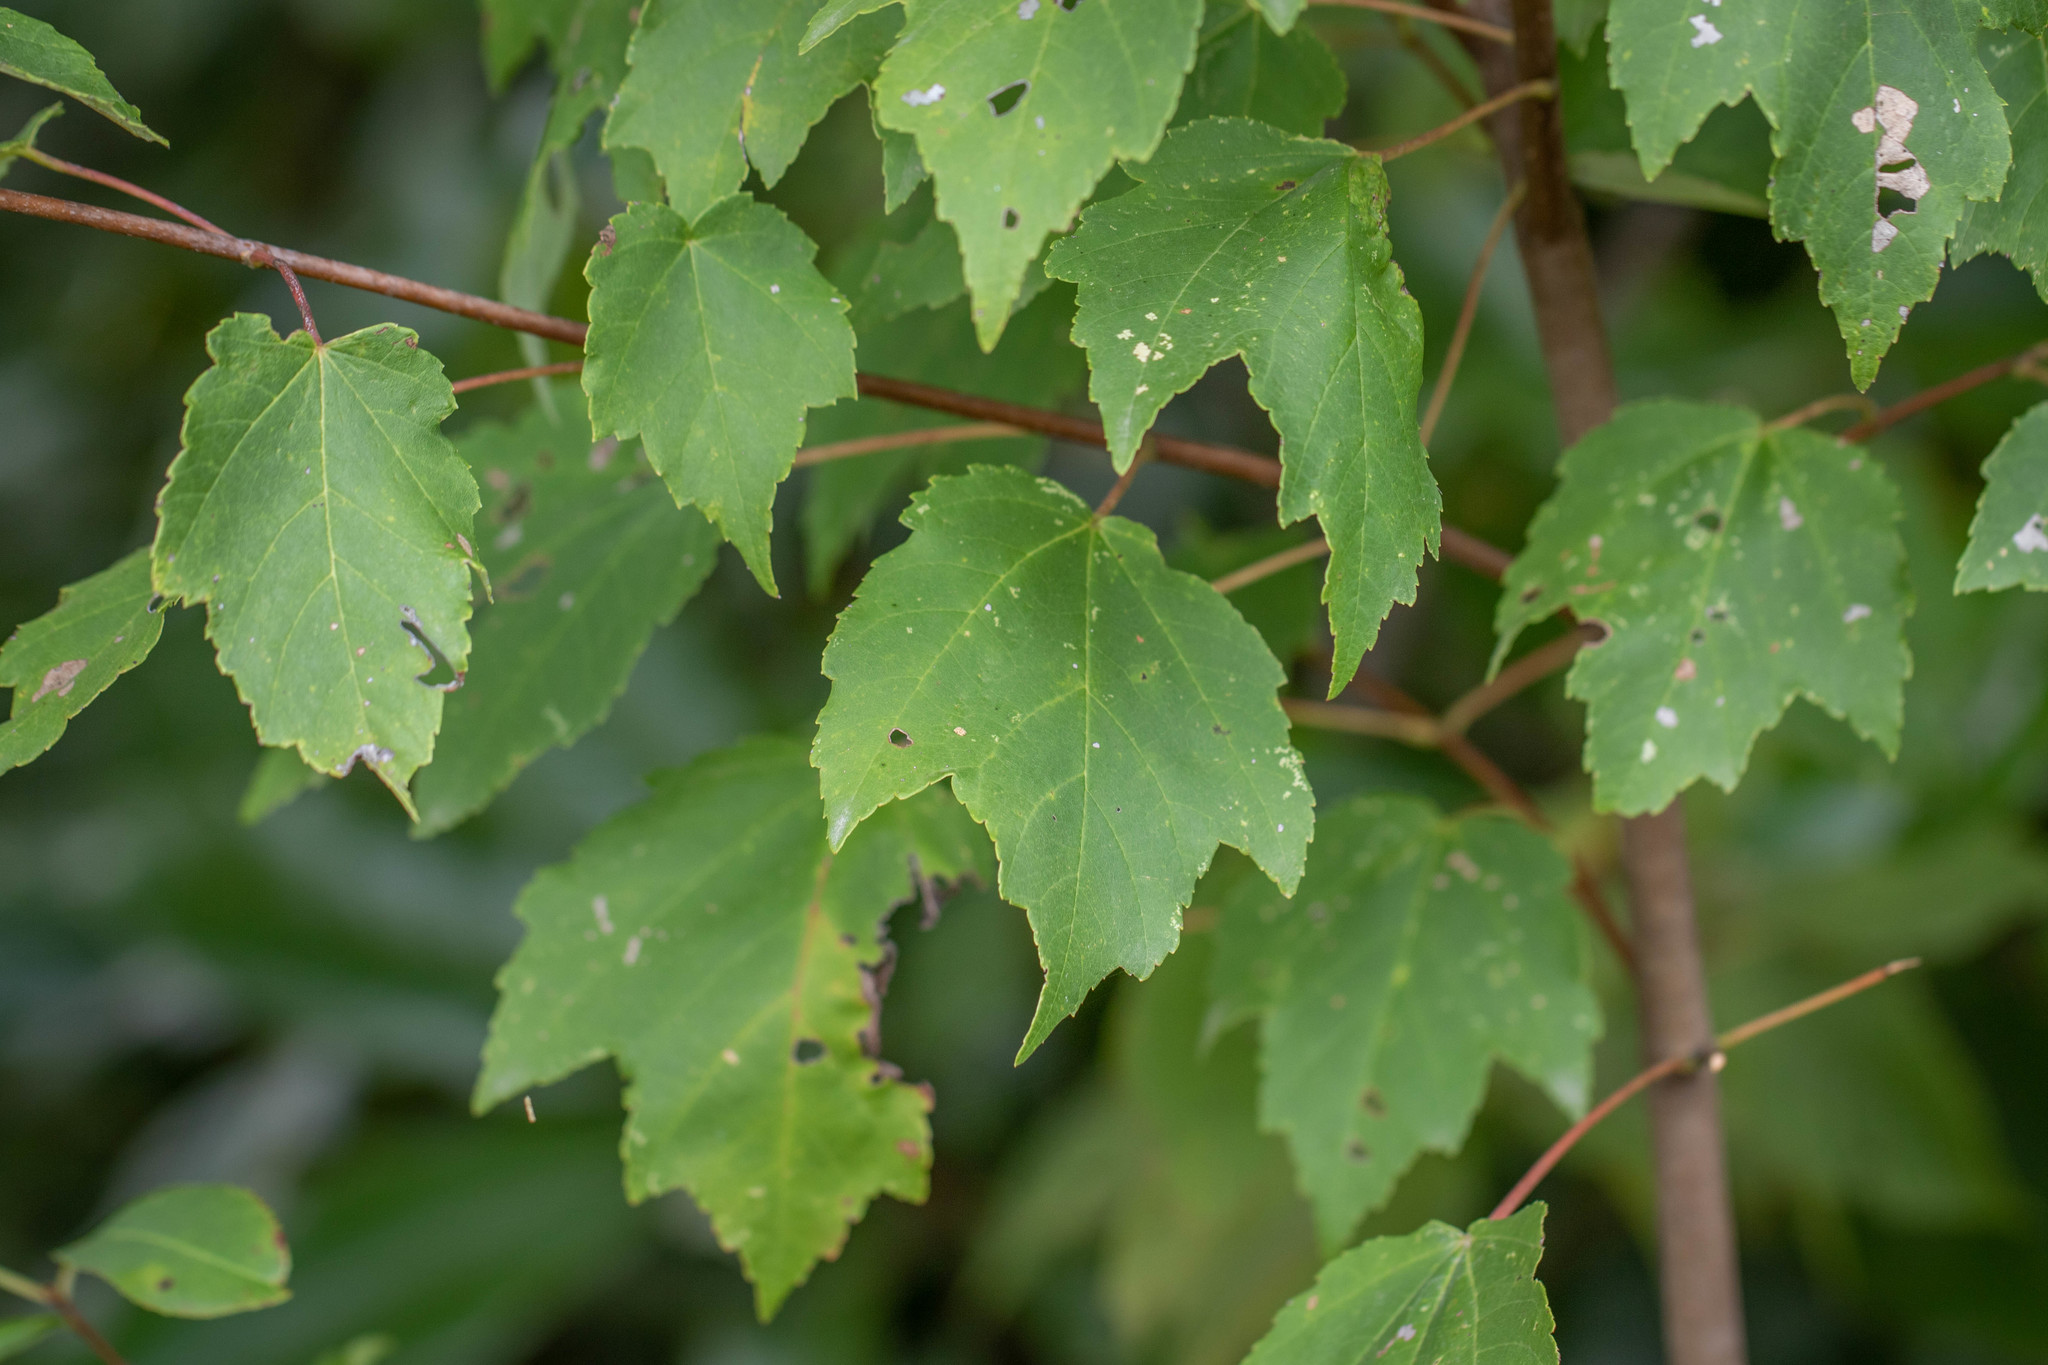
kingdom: Plantae
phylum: Tracheophyta
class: Magnoliopsida
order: Sapindales
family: Sapindaceae
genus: Acer
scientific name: Acer rubrum
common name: Red maple
